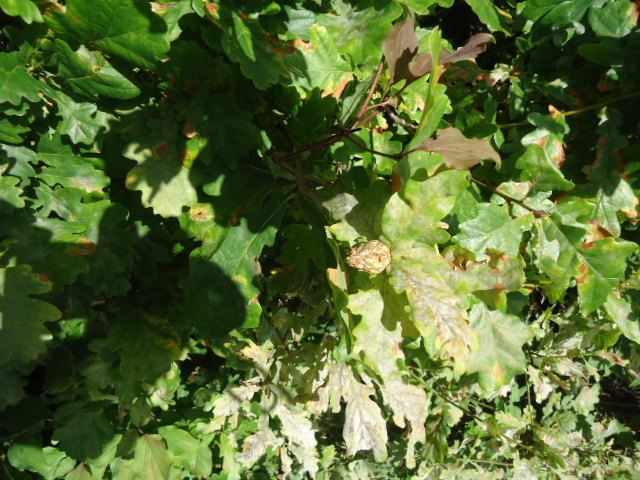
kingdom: Animalia
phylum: Arthropoda
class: Insecta
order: Hymenoptera
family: Cynipidae
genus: Andricus
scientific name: Andricus foecundatrix
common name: Artichoke gall
